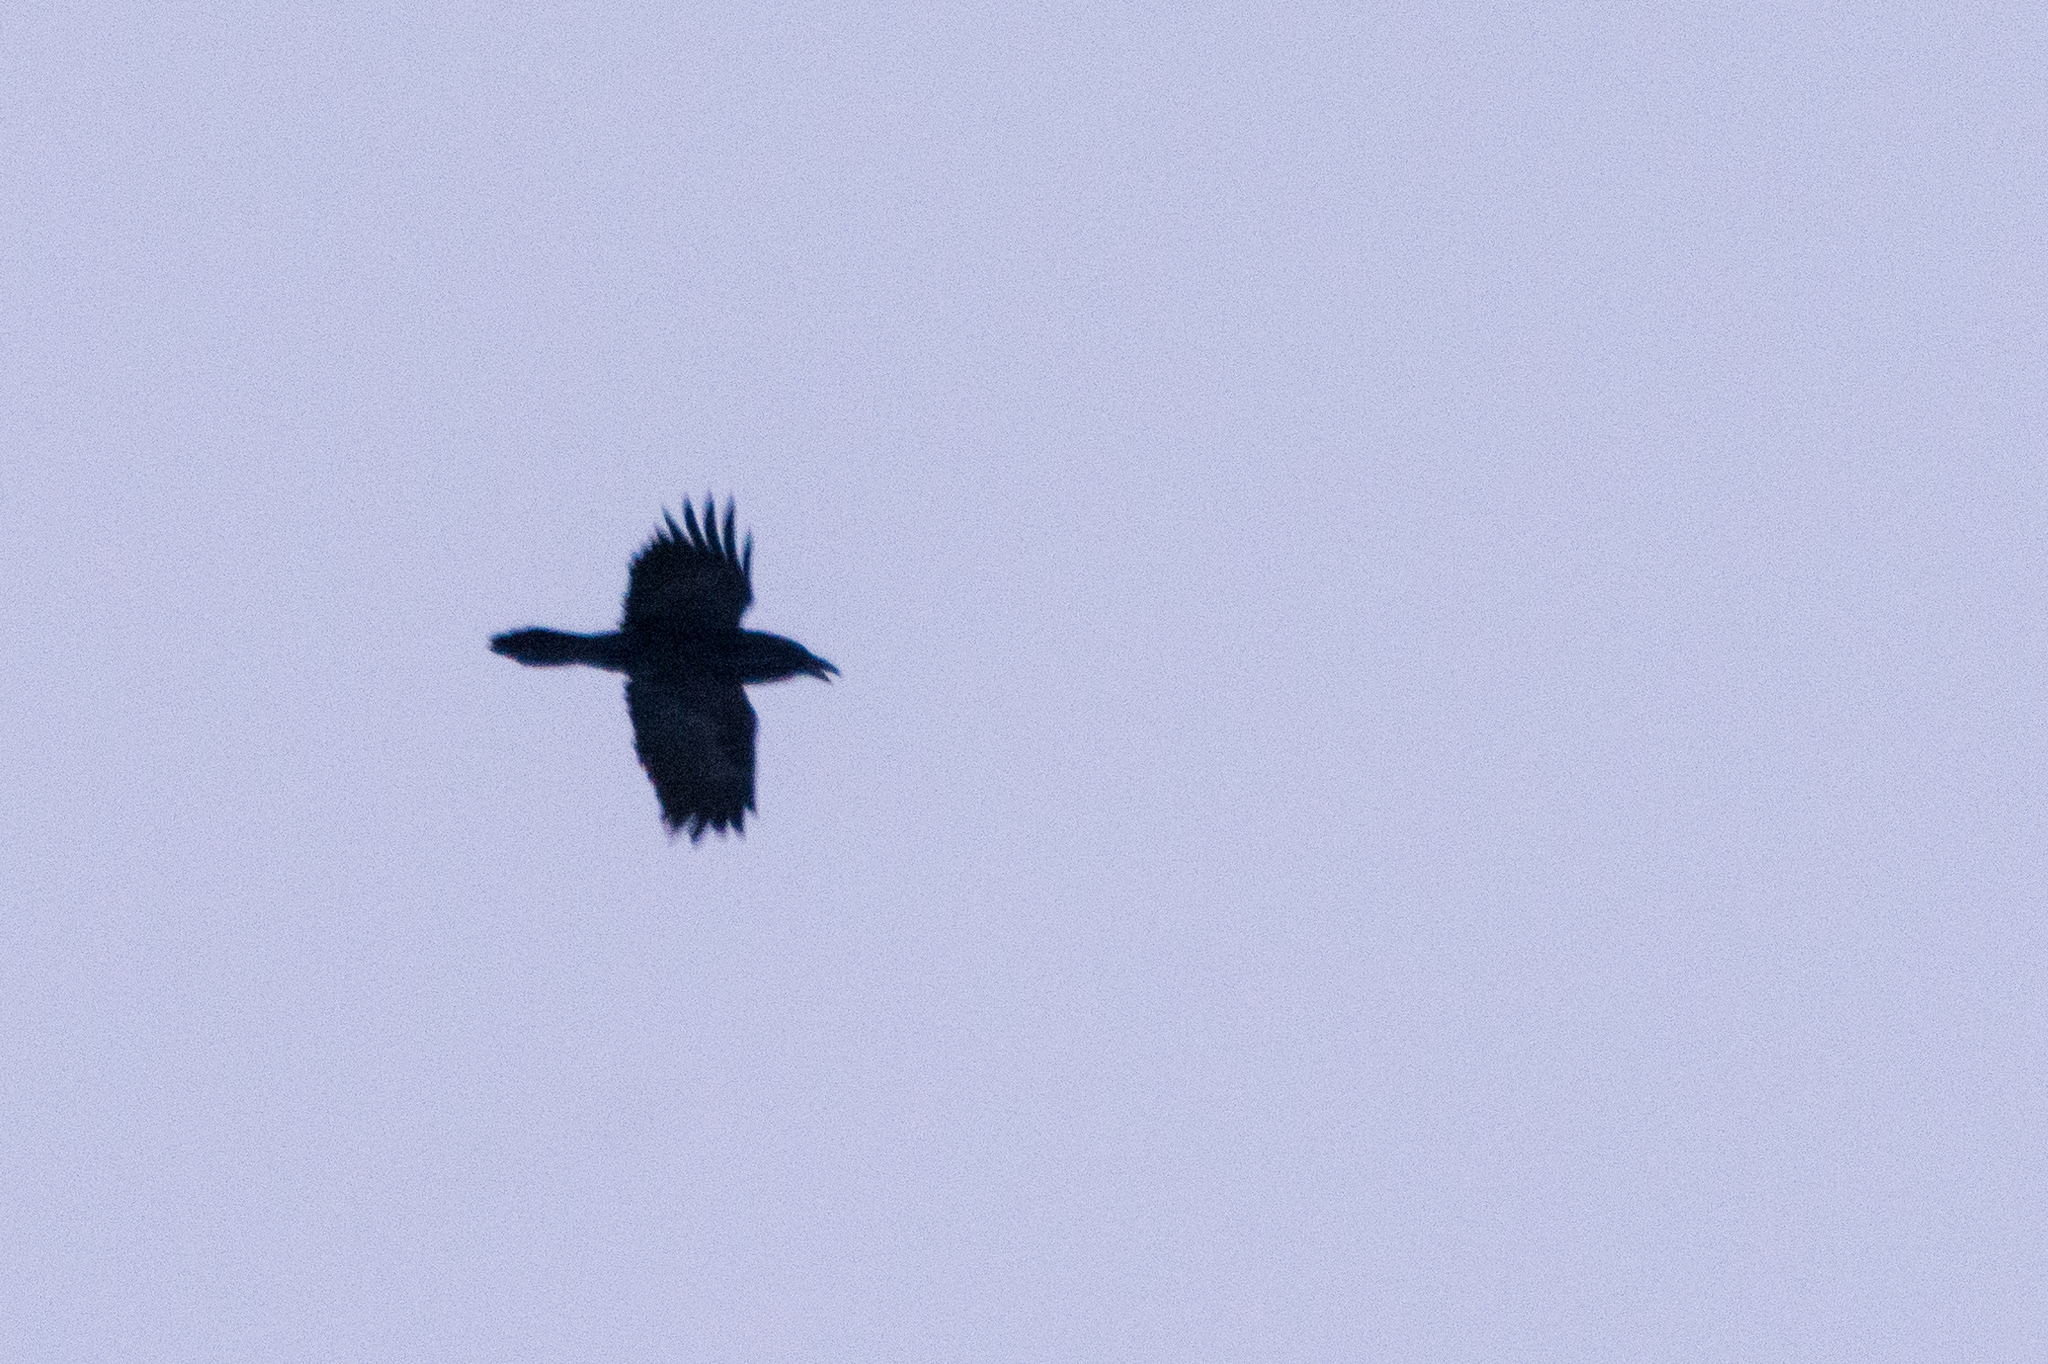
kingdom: Animalia
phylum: Chordata
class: Aves
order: Passeriformes
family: Corvidae
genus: Corvus
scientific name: Corvus corax
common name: Common raven
